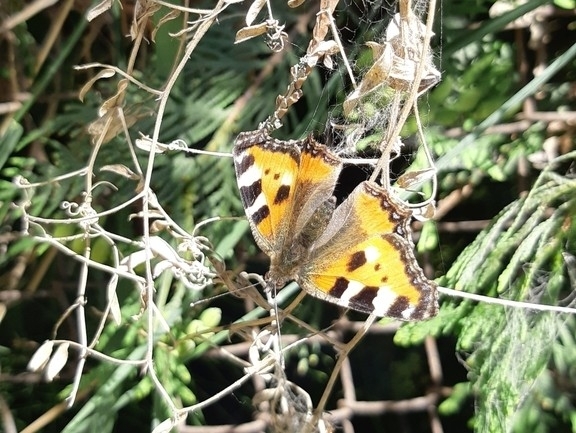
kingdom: Animalia
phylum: Arthropoda
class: Insecta
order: Lepidoptera
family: Nymphalidae
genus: Aglais
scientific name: Aglais urticae
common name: Small tortoiseshell
